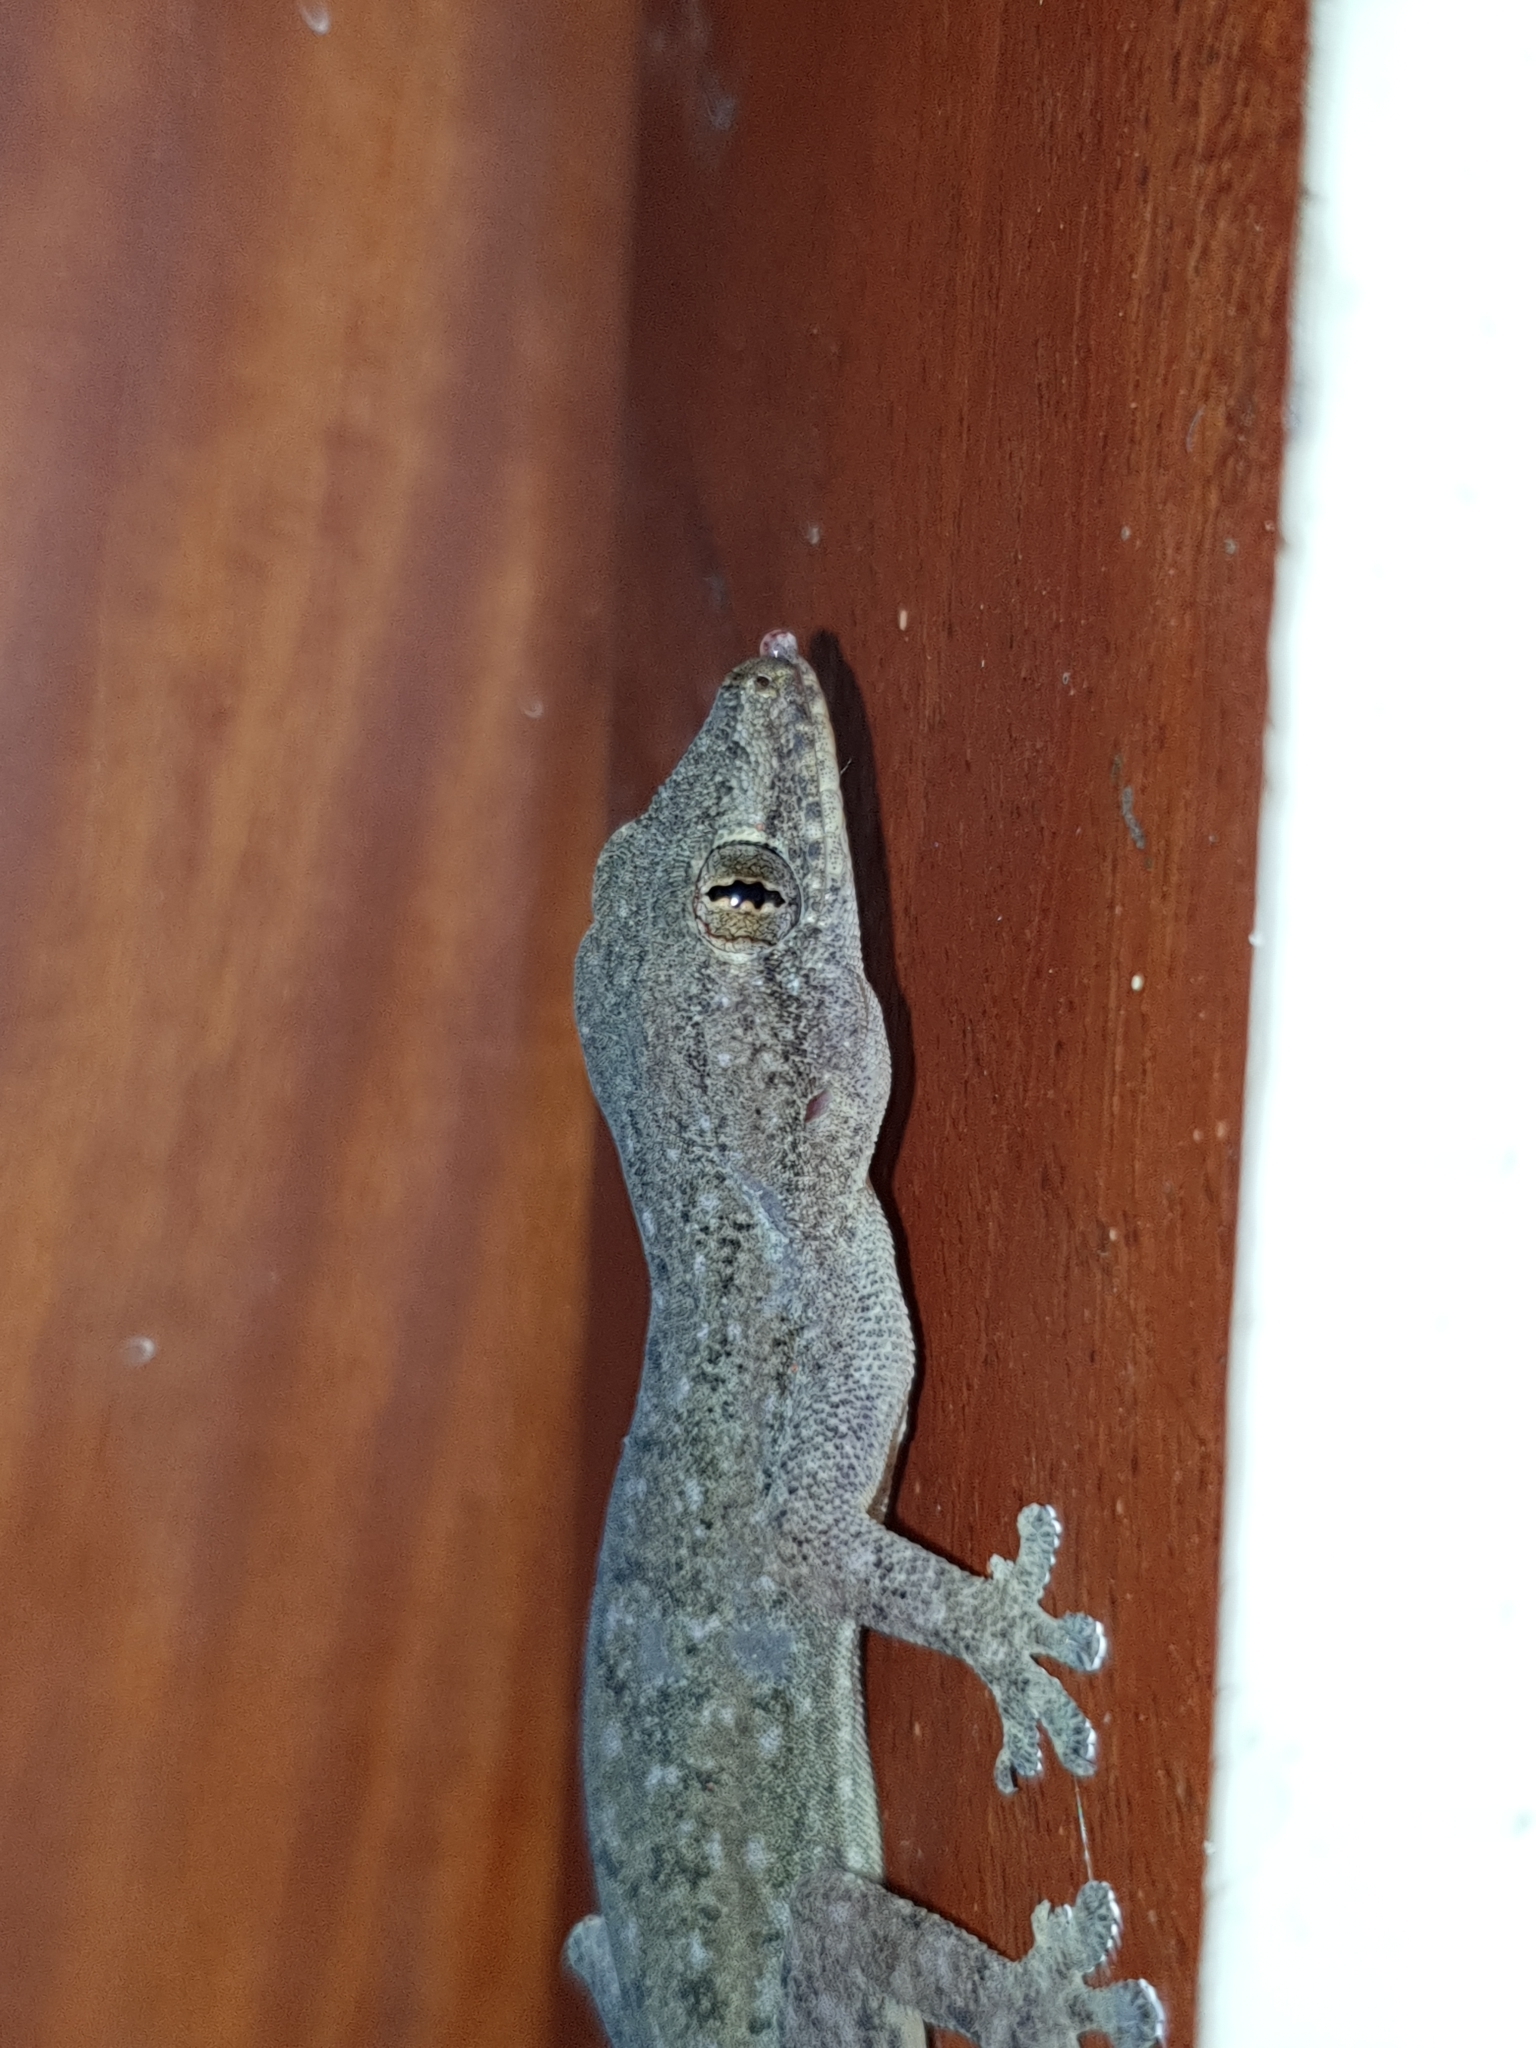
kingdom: Animalia
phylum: Chordata
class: Squamata
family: Gekkonidae
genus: Hemidactylus
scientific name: Hemidactylus frenatus
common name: Common house gecko
